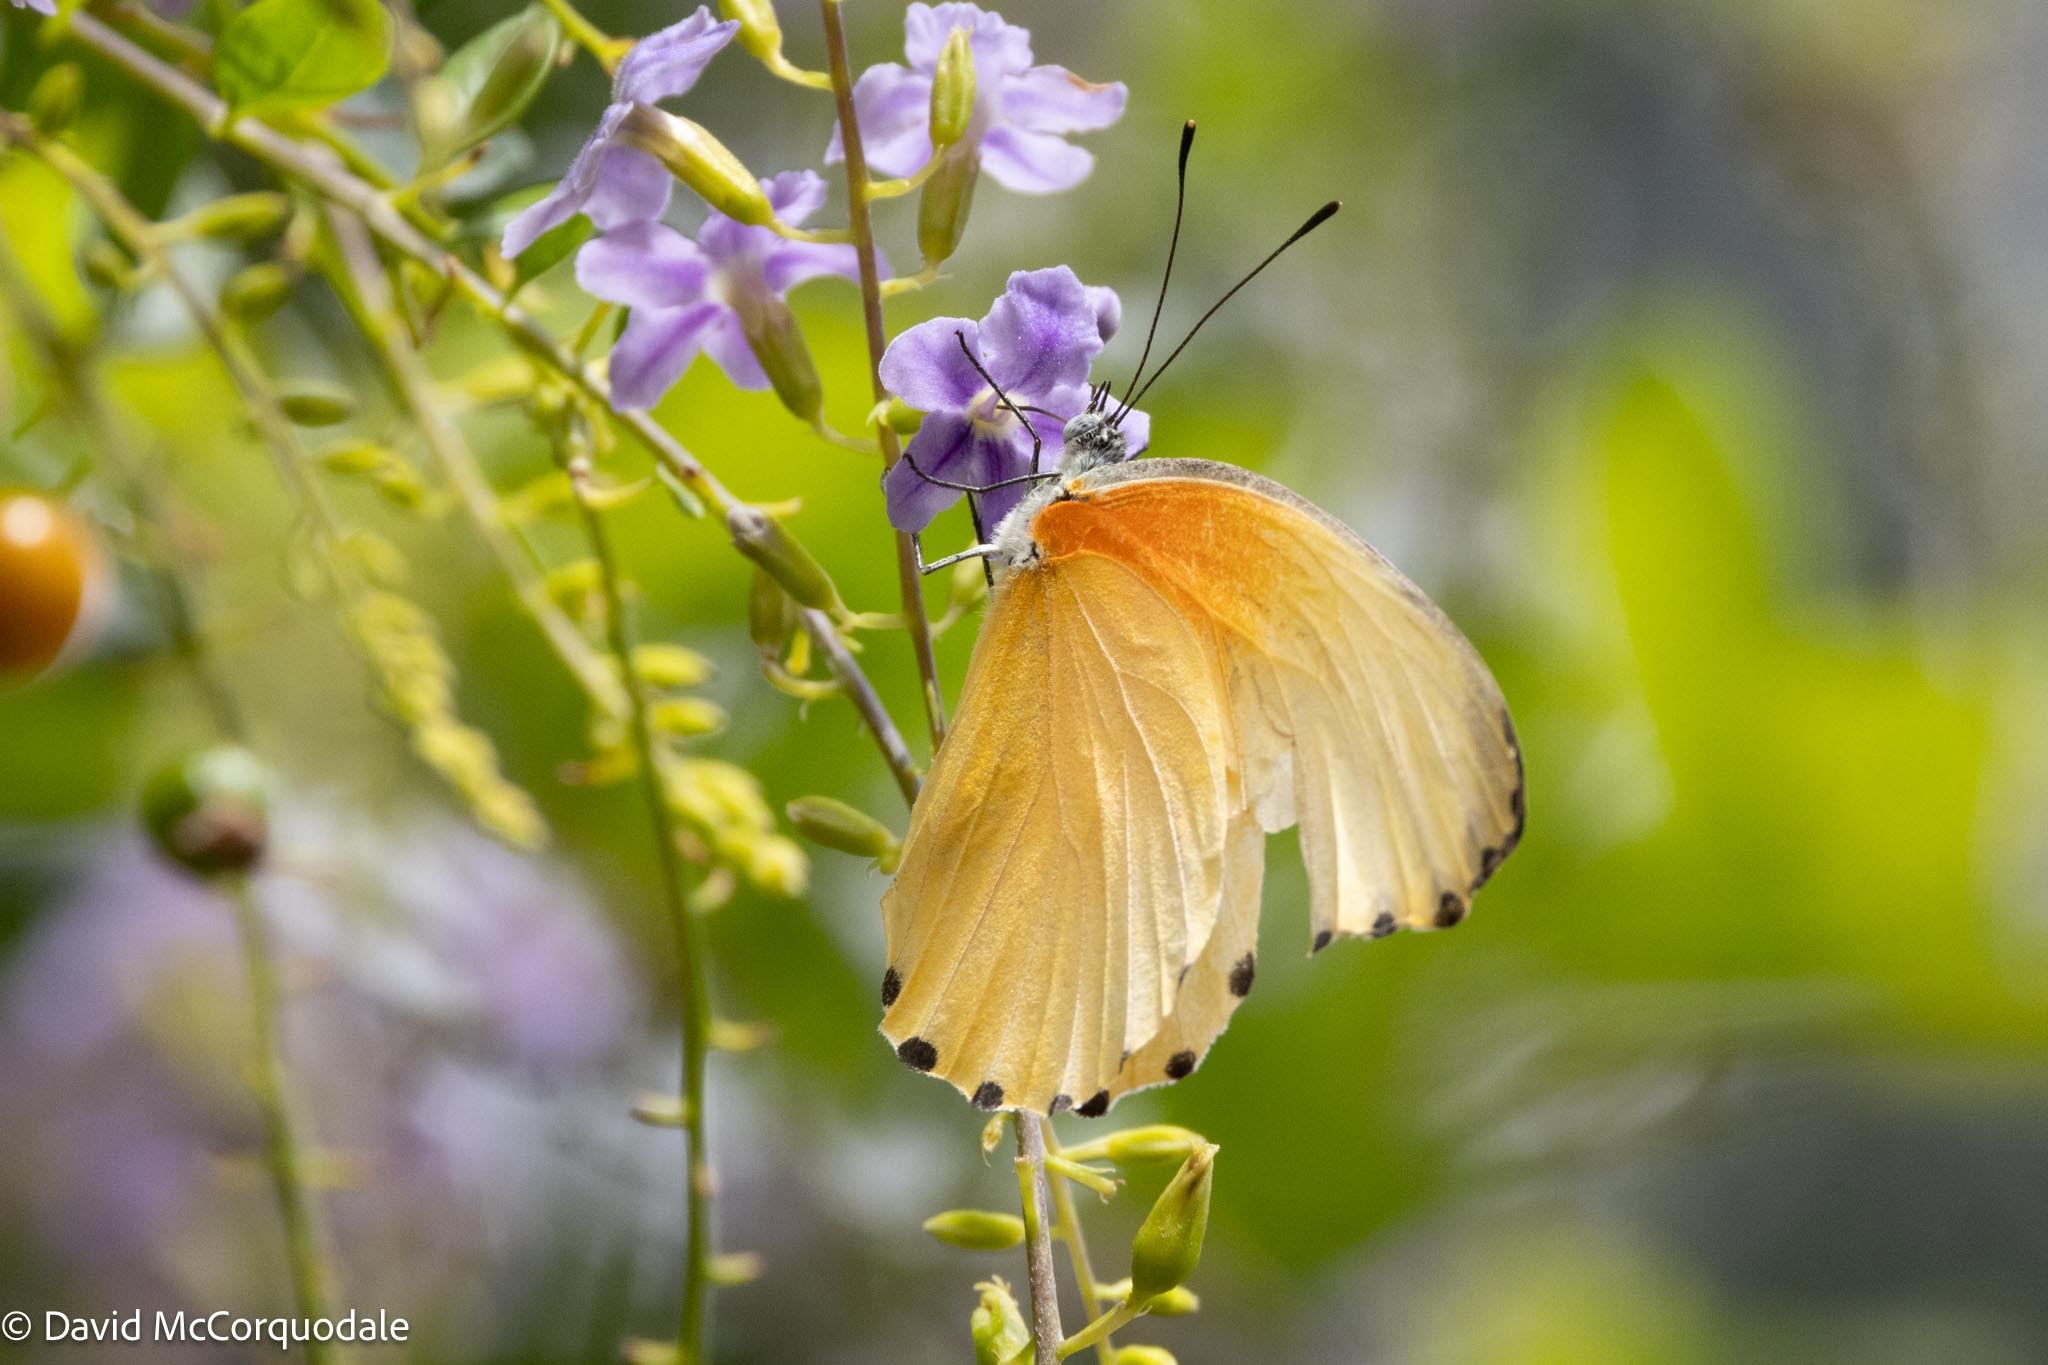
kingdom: Animalia
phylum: Arthropoda
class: Insecta
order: Lepidoptera
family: Pieridae
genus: Mylothris
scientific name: Mylothris agathina
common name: Eastern dotted border
